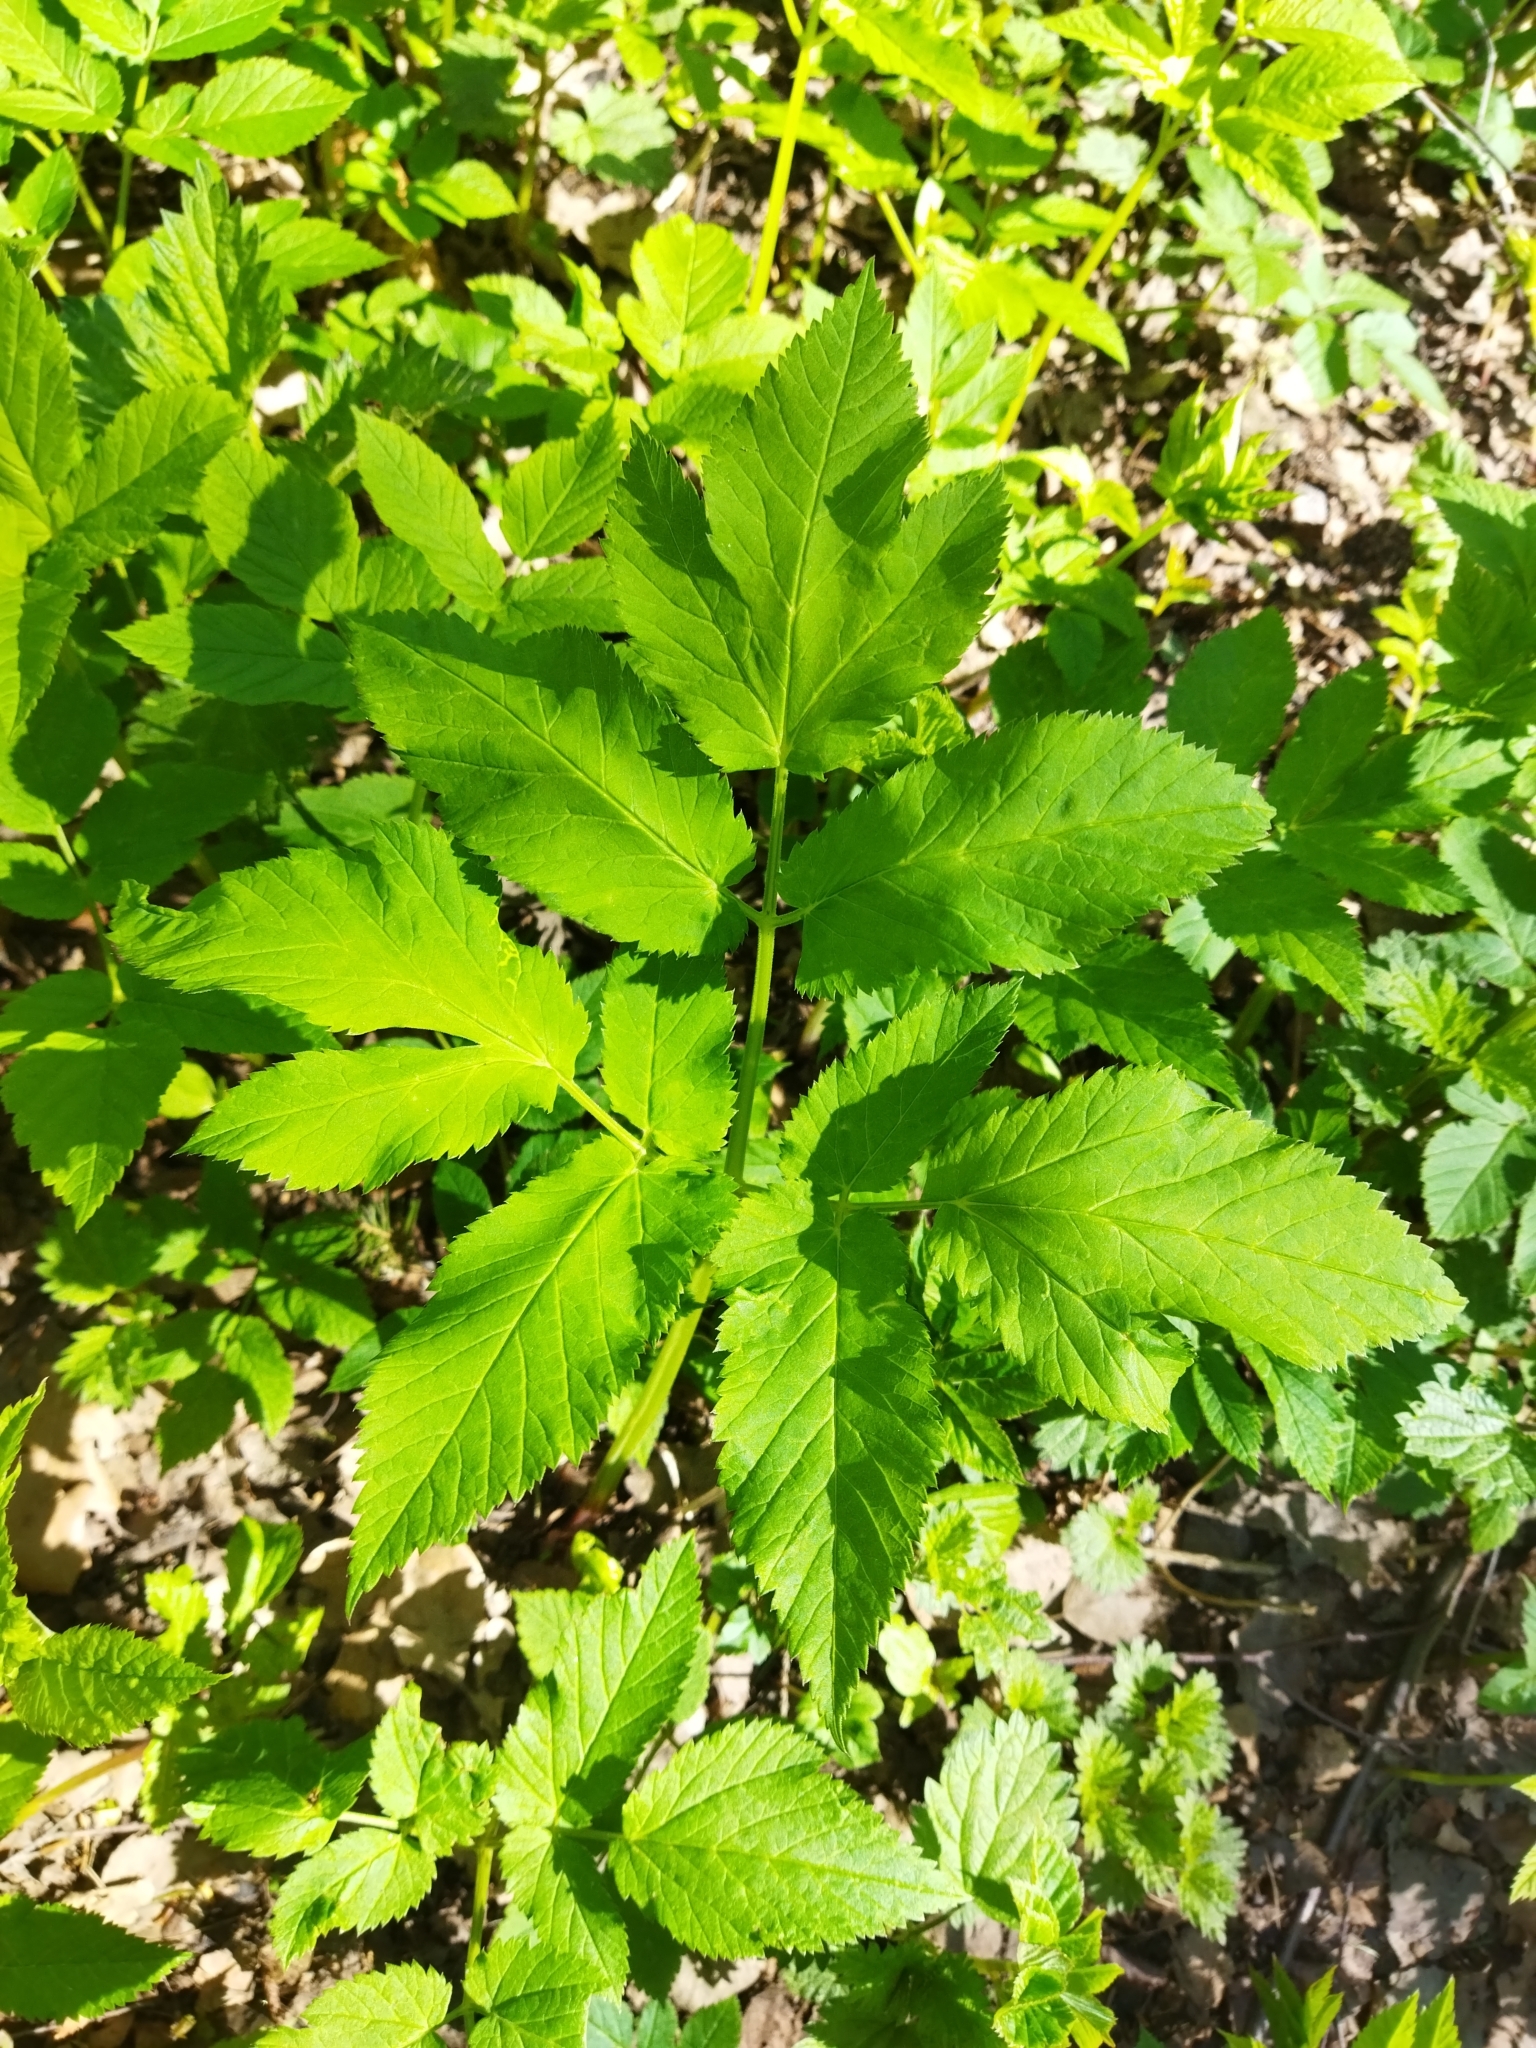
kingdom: Plantae
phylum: Tracheophyta
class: Magnoliopsida
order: Apiales
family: Apiaceae
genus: Aegopodium
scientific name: Aegopodium podagraria
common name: Ground-elder
